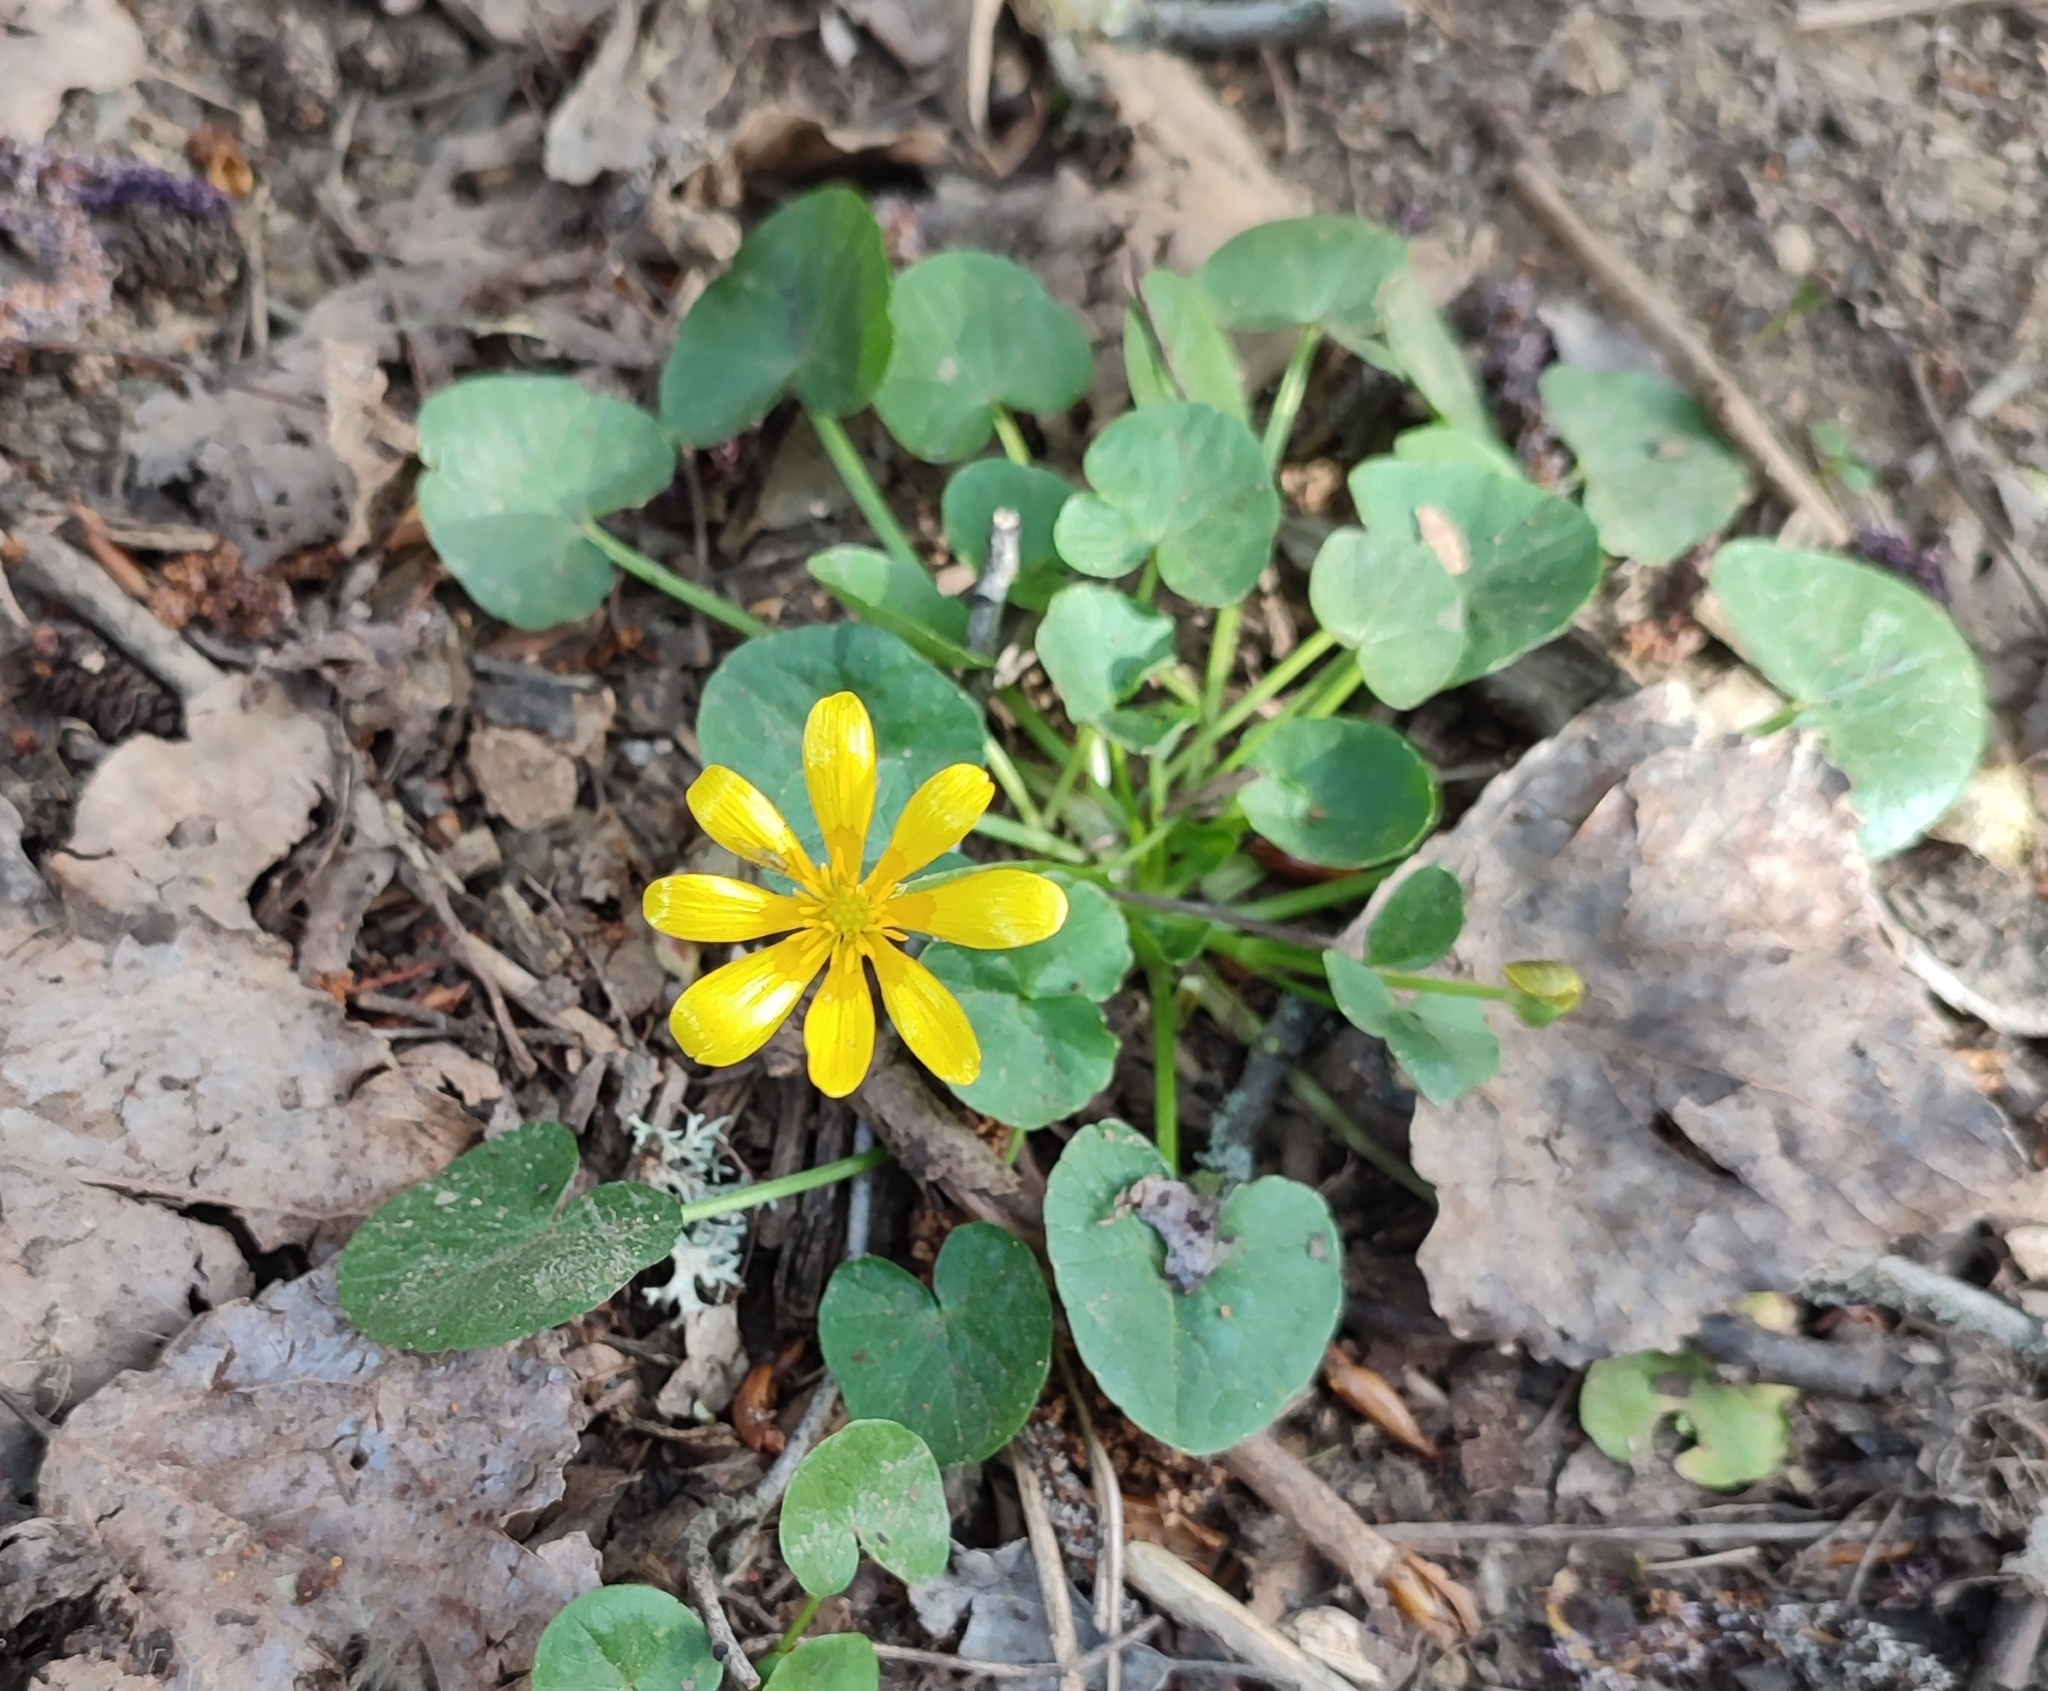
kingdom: Plantae
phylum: Tracheophyta
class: Magnoliopsida
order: Ranunculales
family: Ranunculaceae
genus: Ficaria
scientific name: Ficaria verna
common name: Lesser celandine
